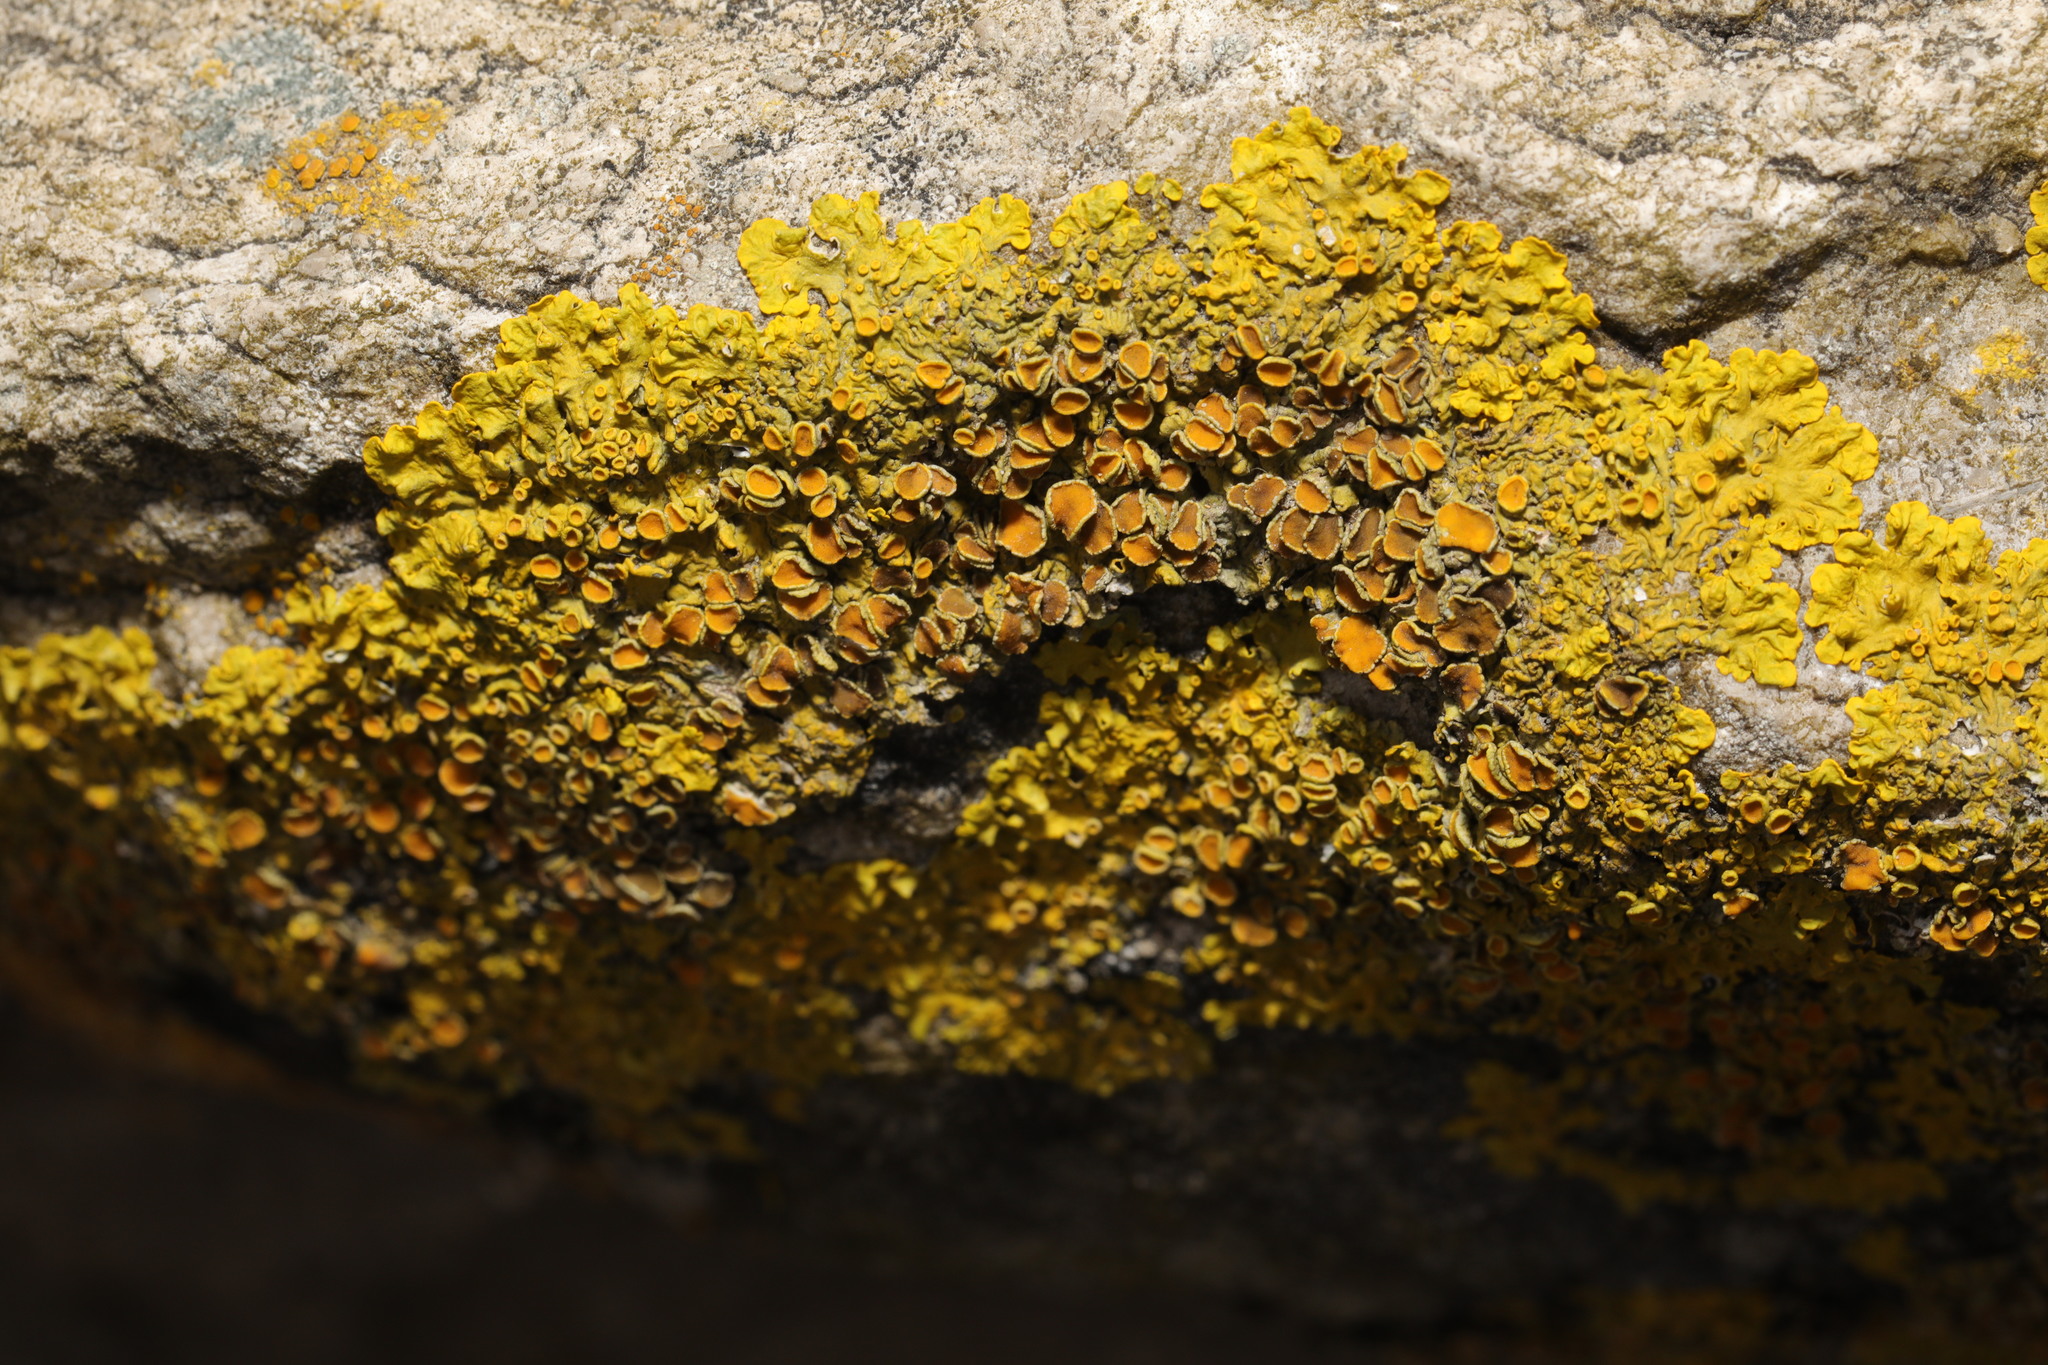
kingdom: Fungi
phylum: Ascomycota
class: Lecanoromycetes
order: Teloschistales
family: Teloschistaceae
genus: Xanthoria
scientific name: Xanthoria parietina
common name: Common orange lichen
